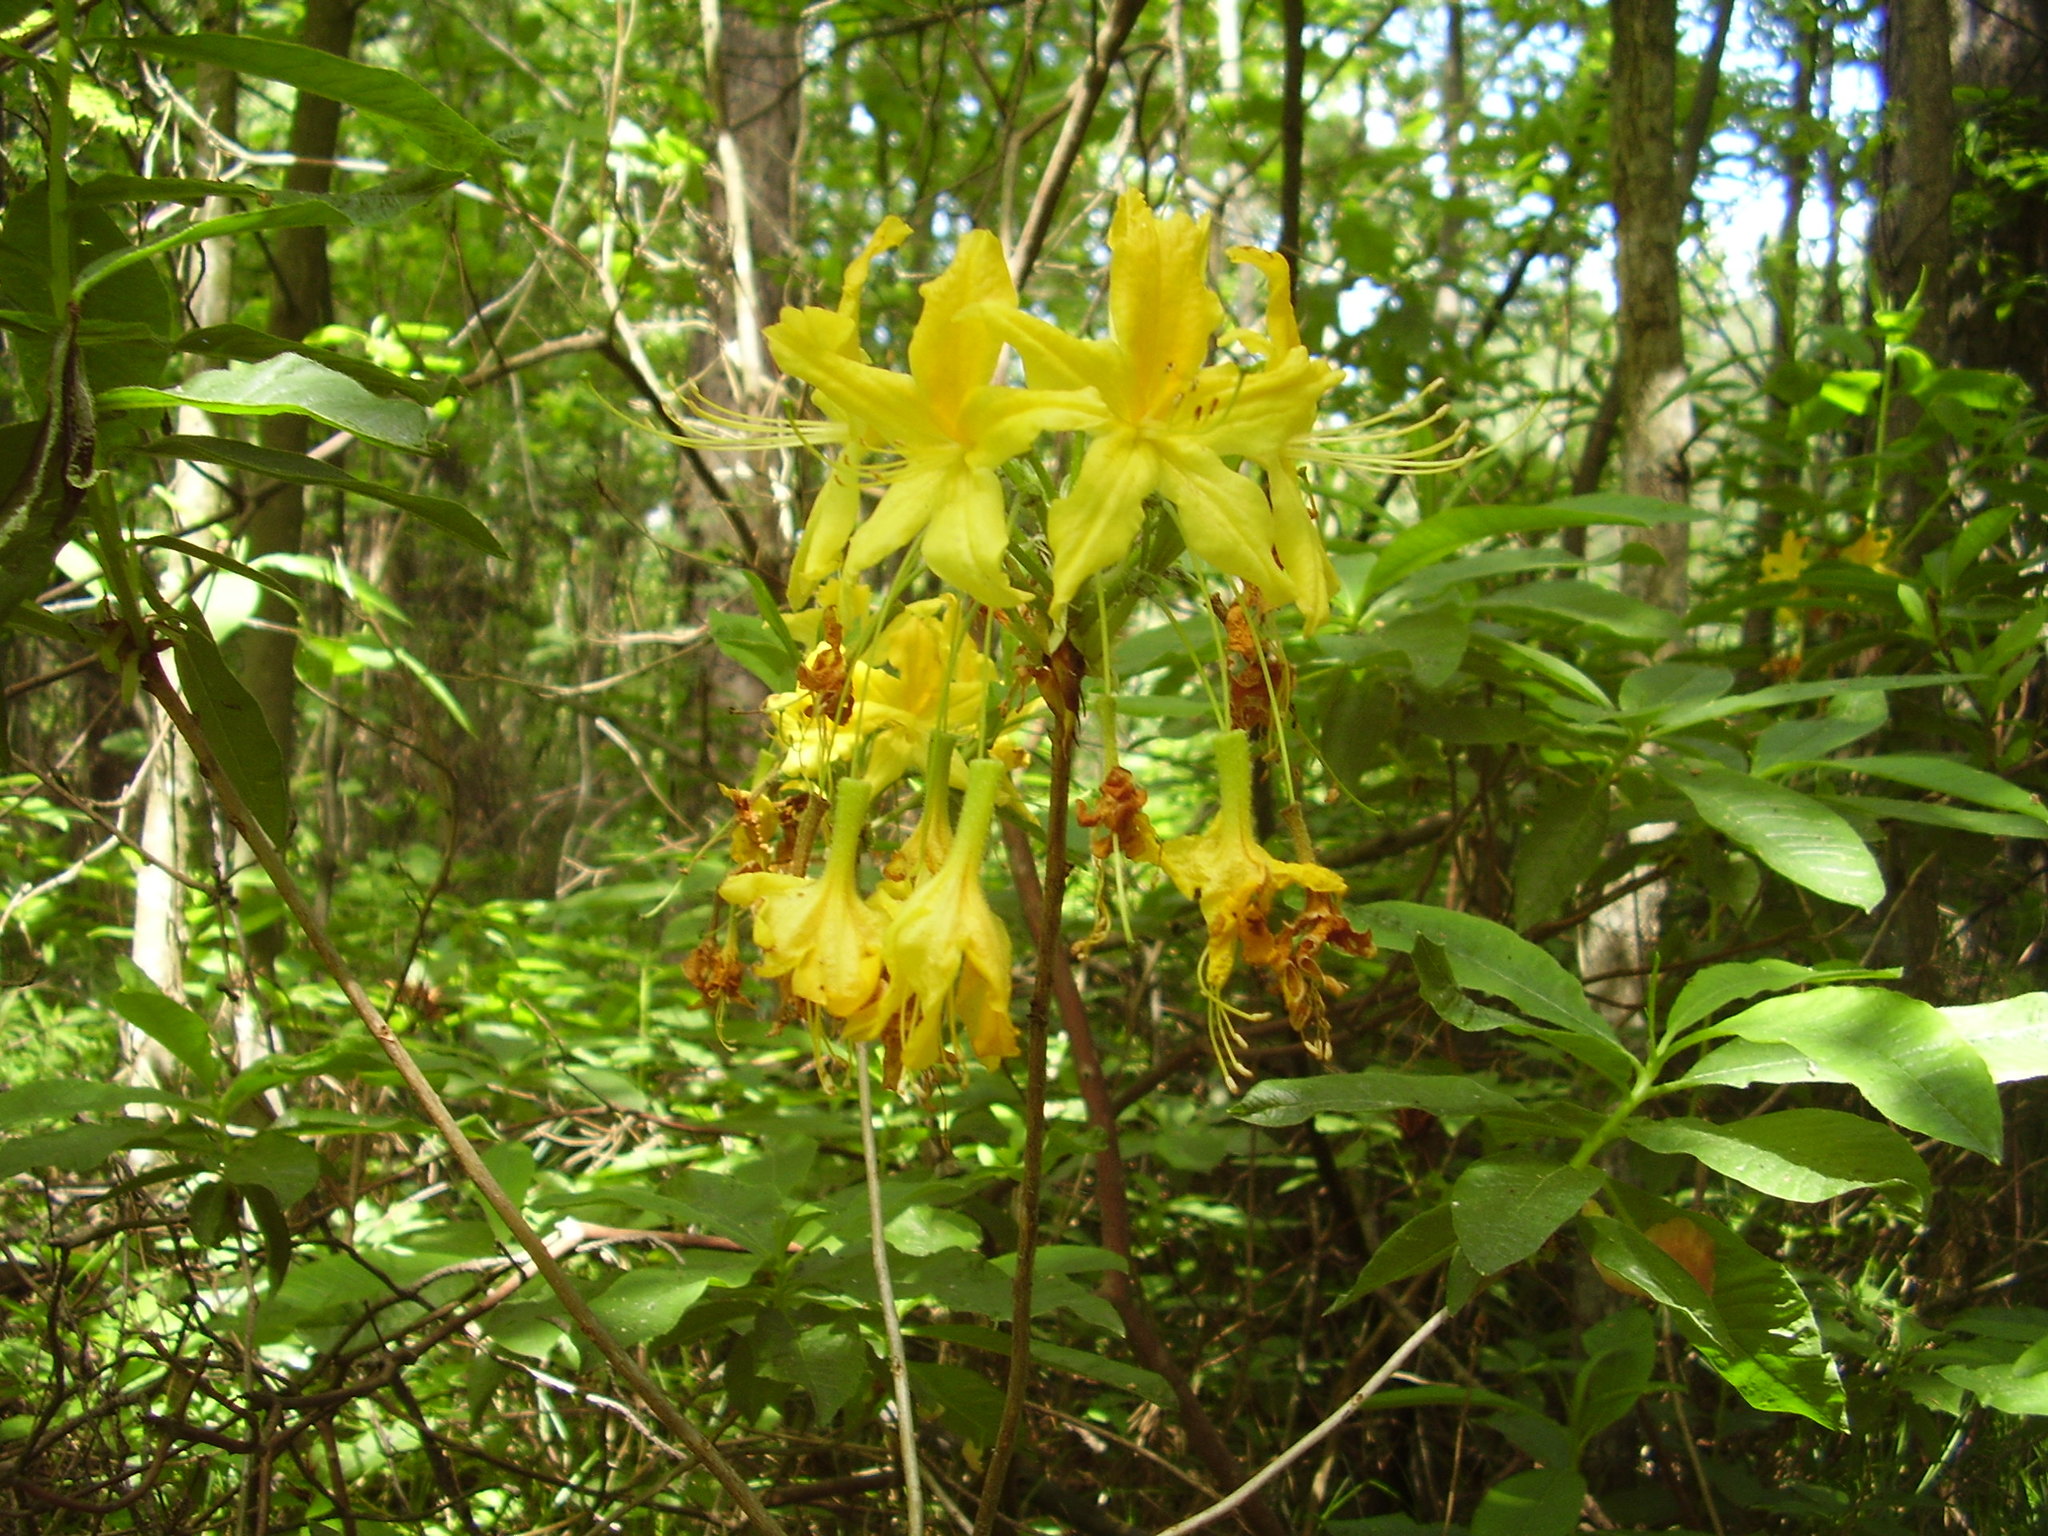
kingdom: Plantae
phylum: Tracheophyta
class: Magnoliopsida
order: Ericales
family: Ericaceae
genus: Rhododendron
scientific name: Rhododendron luteum
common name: Yellow azalea
